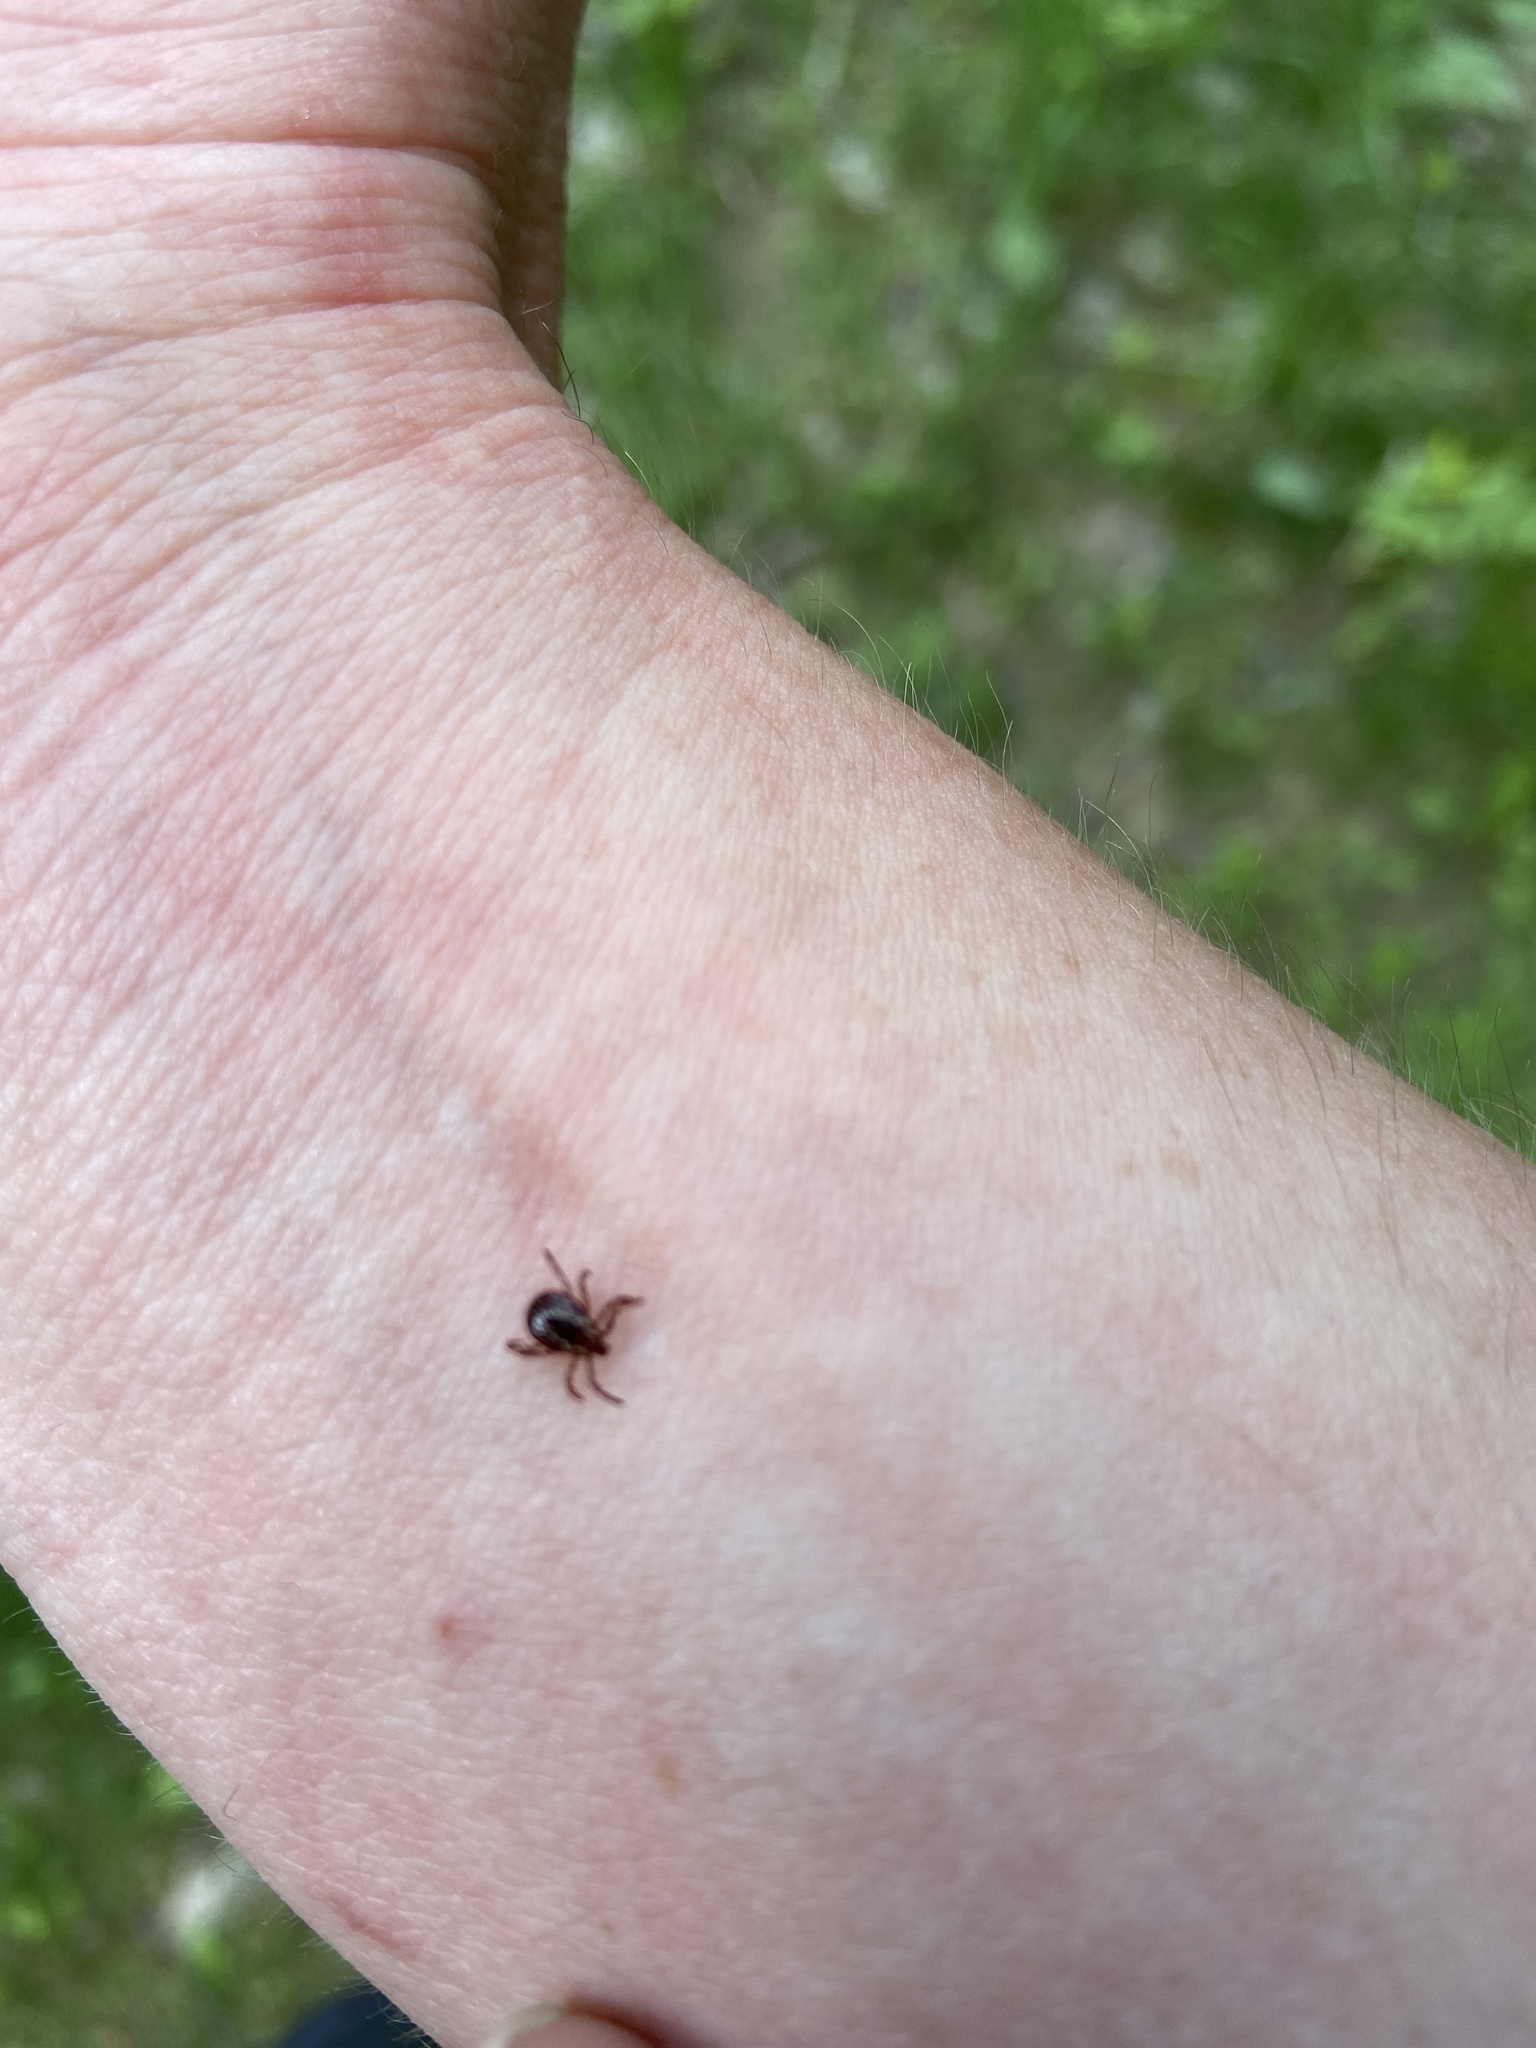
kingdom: Animalia
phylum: Arthropoda
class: Arachnida
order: Ixodida
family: Ixodidae
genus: Dermacentor
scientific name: Dermacentor variabilis
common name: American dog tick
